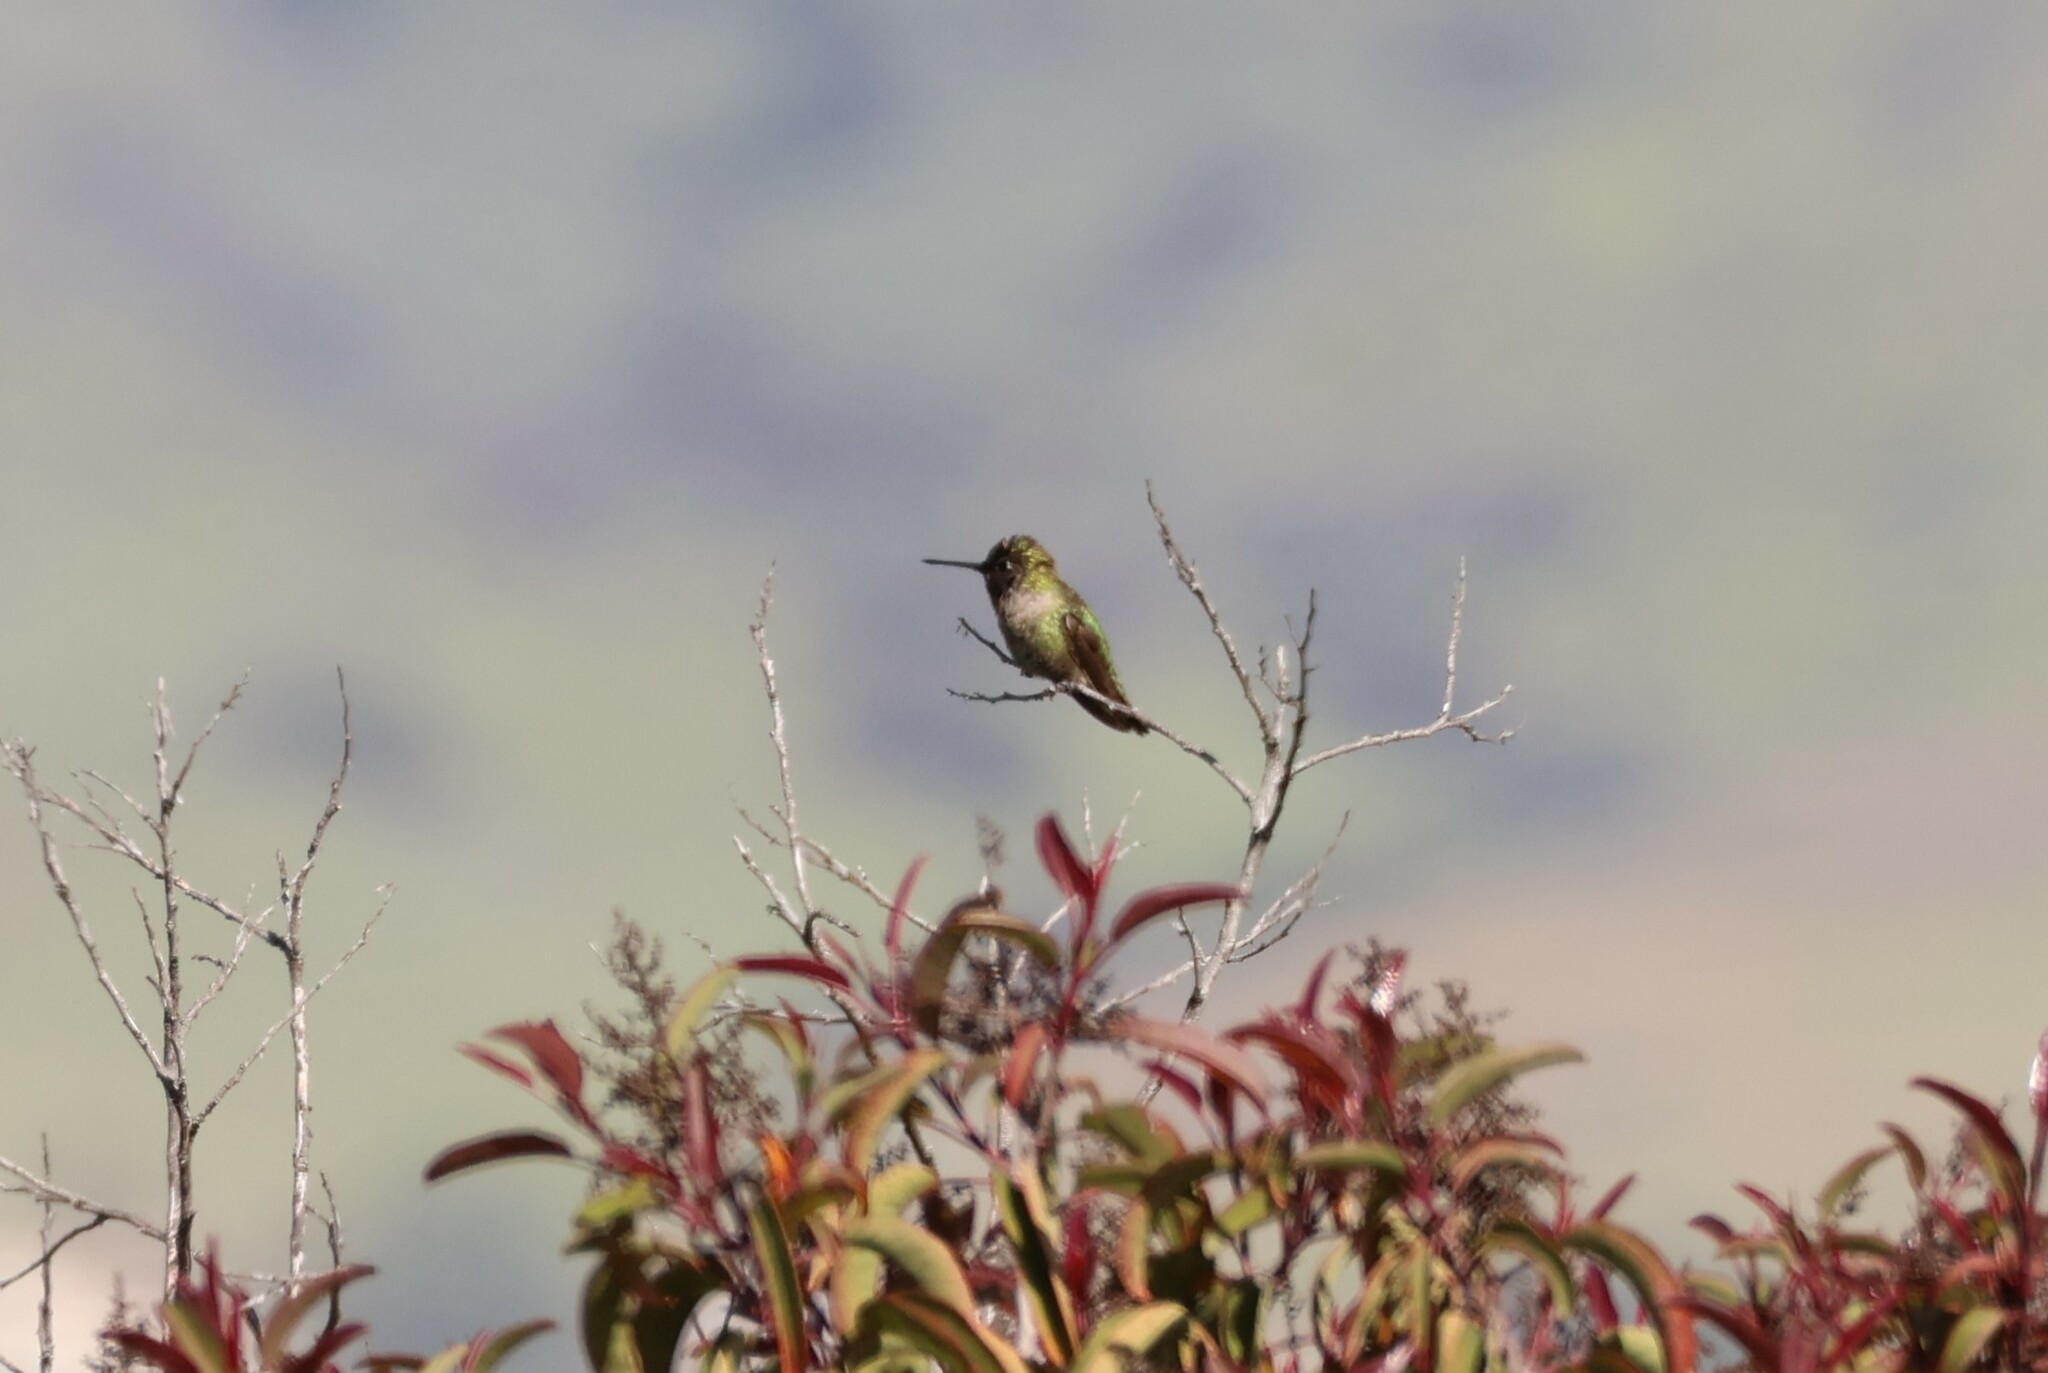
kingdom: Animalia
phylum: Chordata
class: Aves
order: Apodiformes
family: Trochilidae
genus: Calypte
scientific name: Calypte anna
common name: Anna's hummingbird
